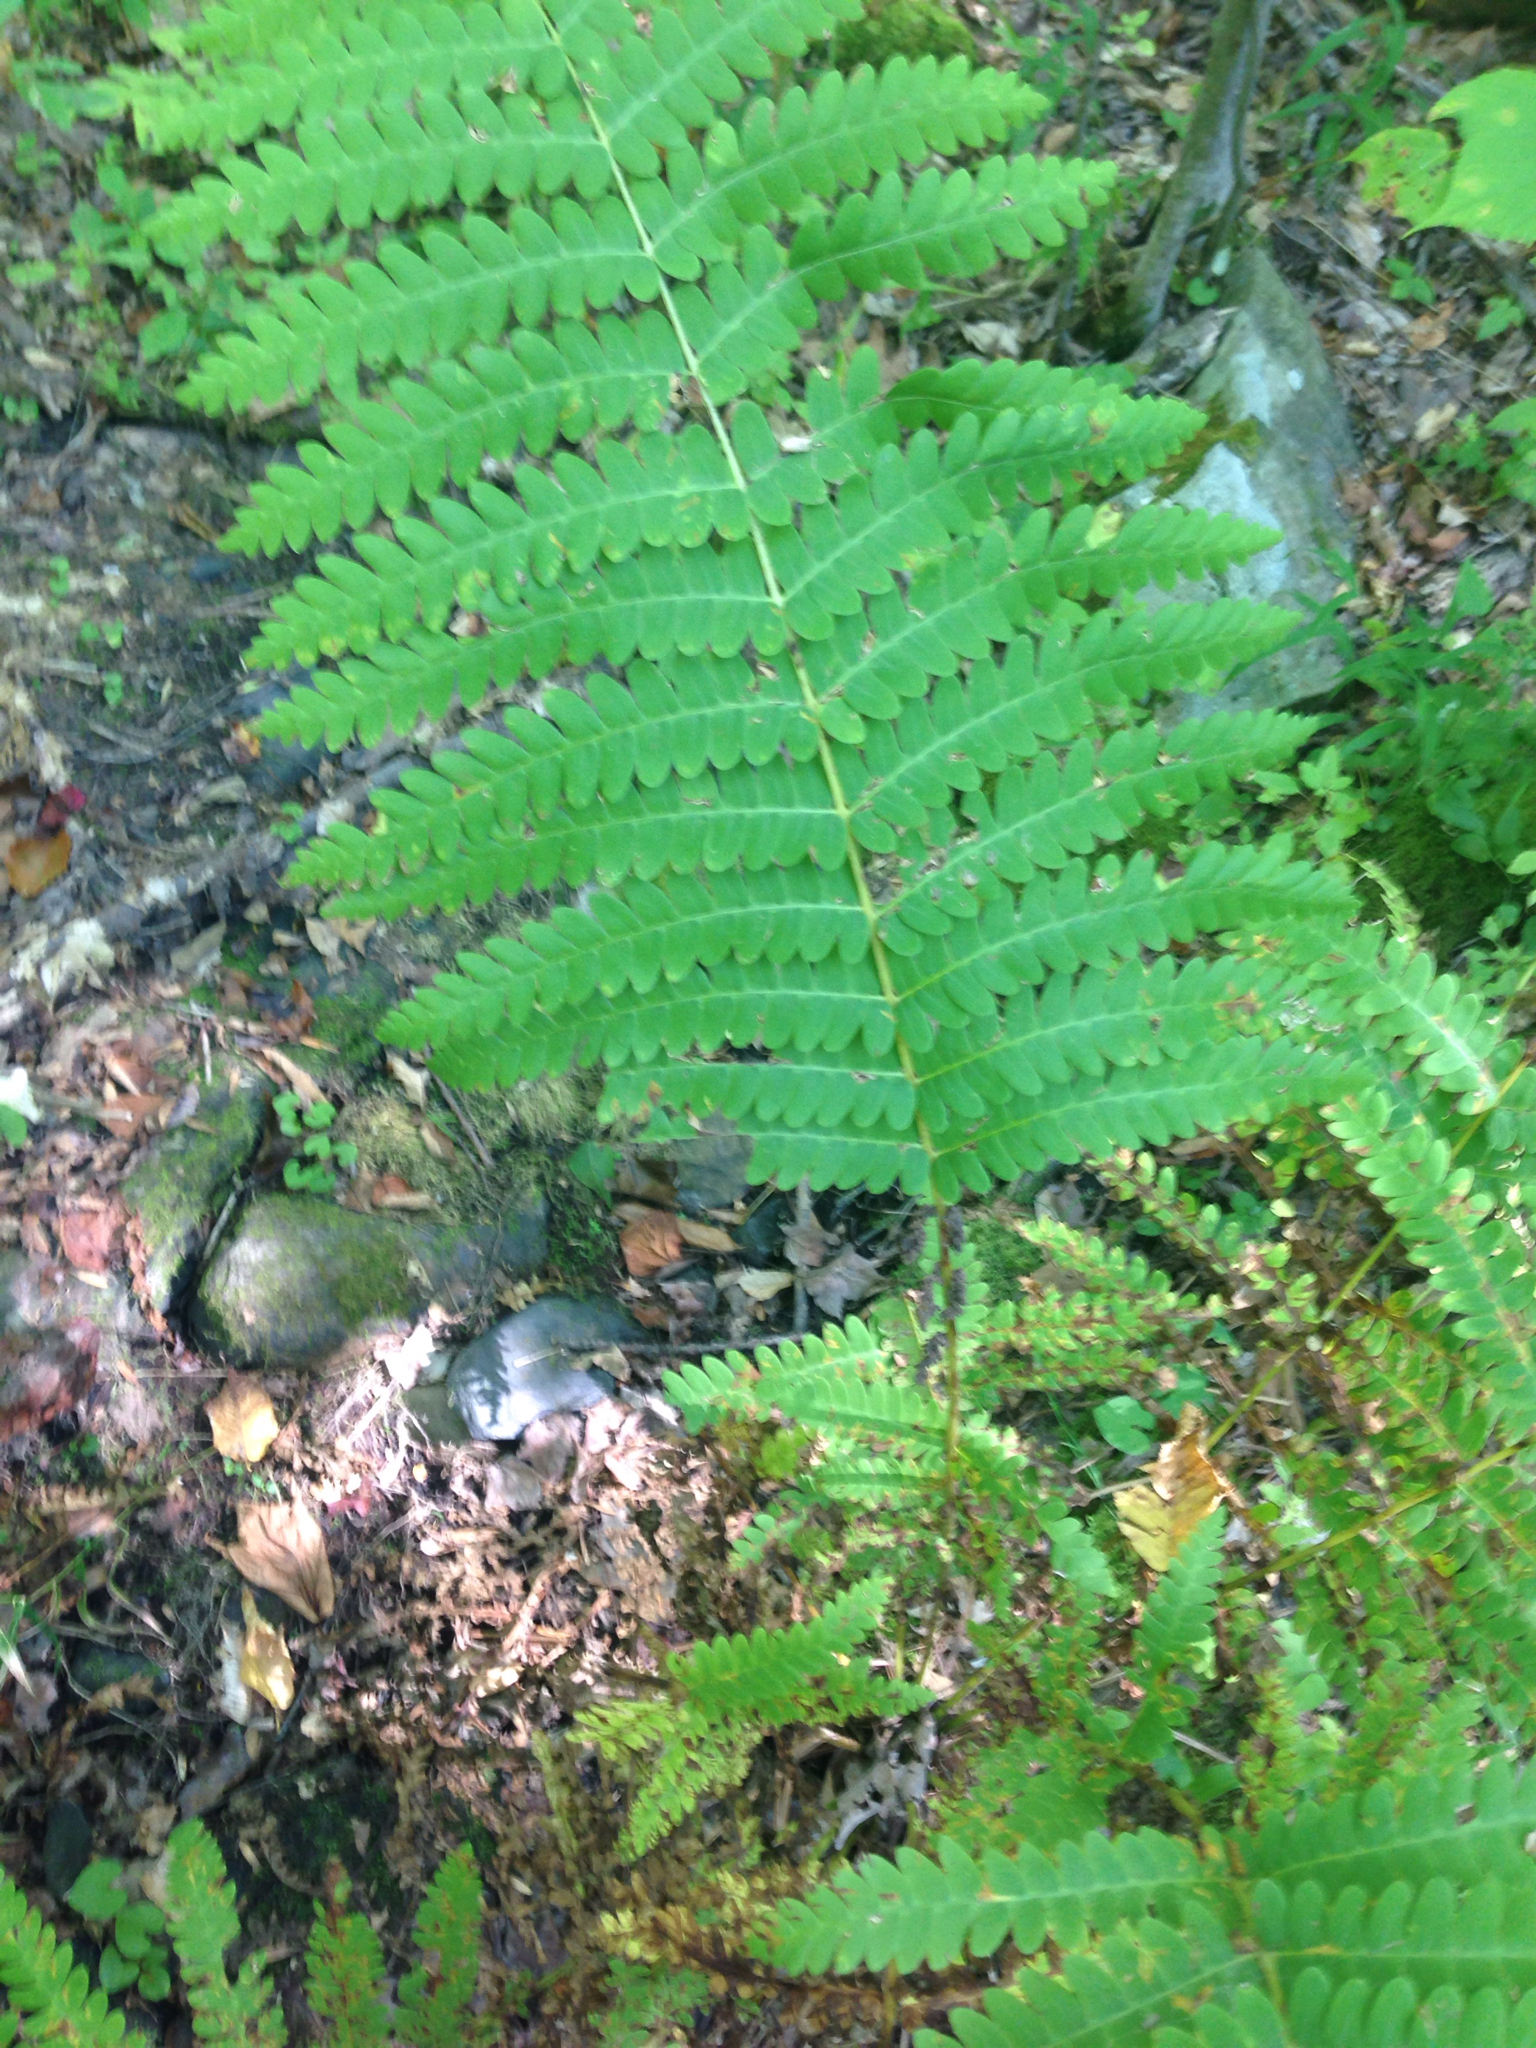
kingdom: Plantae
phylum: Tracheophyta
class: Polypodiopsida
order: Osmundales
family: Osmundaceae
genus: Claytosmunda
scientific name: Claytosmunda claytoniana
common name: Clayton's fern
